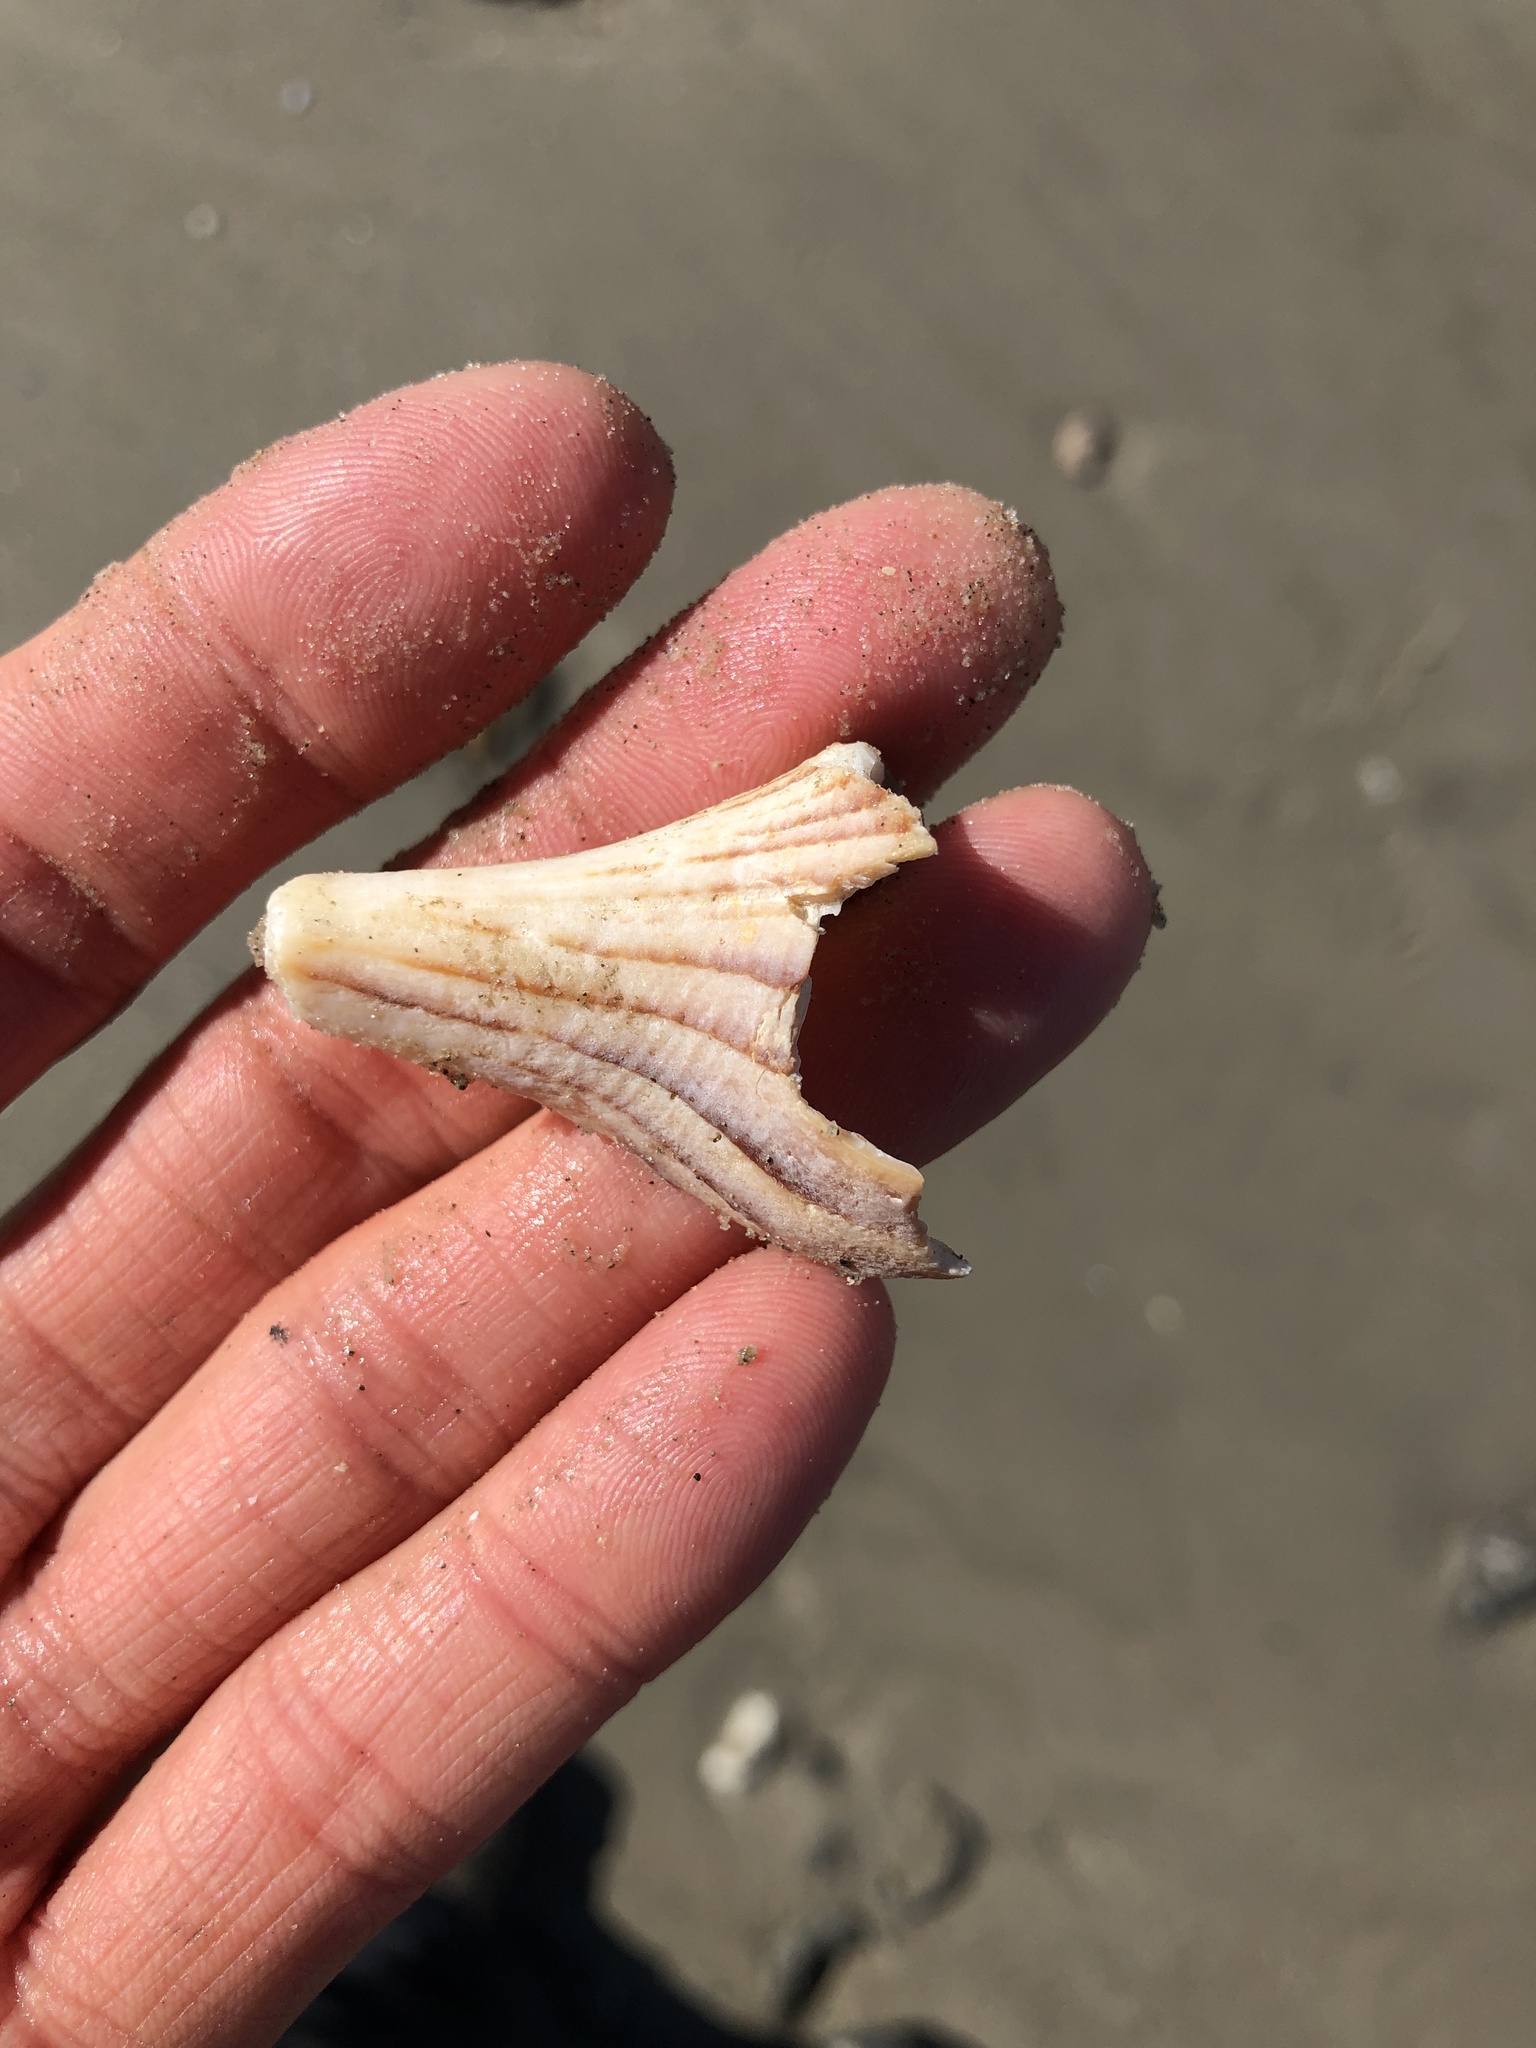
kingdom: Animalia
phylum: Mollusca
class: Gastropoda
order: Neogastropoda
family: Busyconidae
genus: Sinistrofulgur
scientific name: Sinistrofulgur pulleyi
